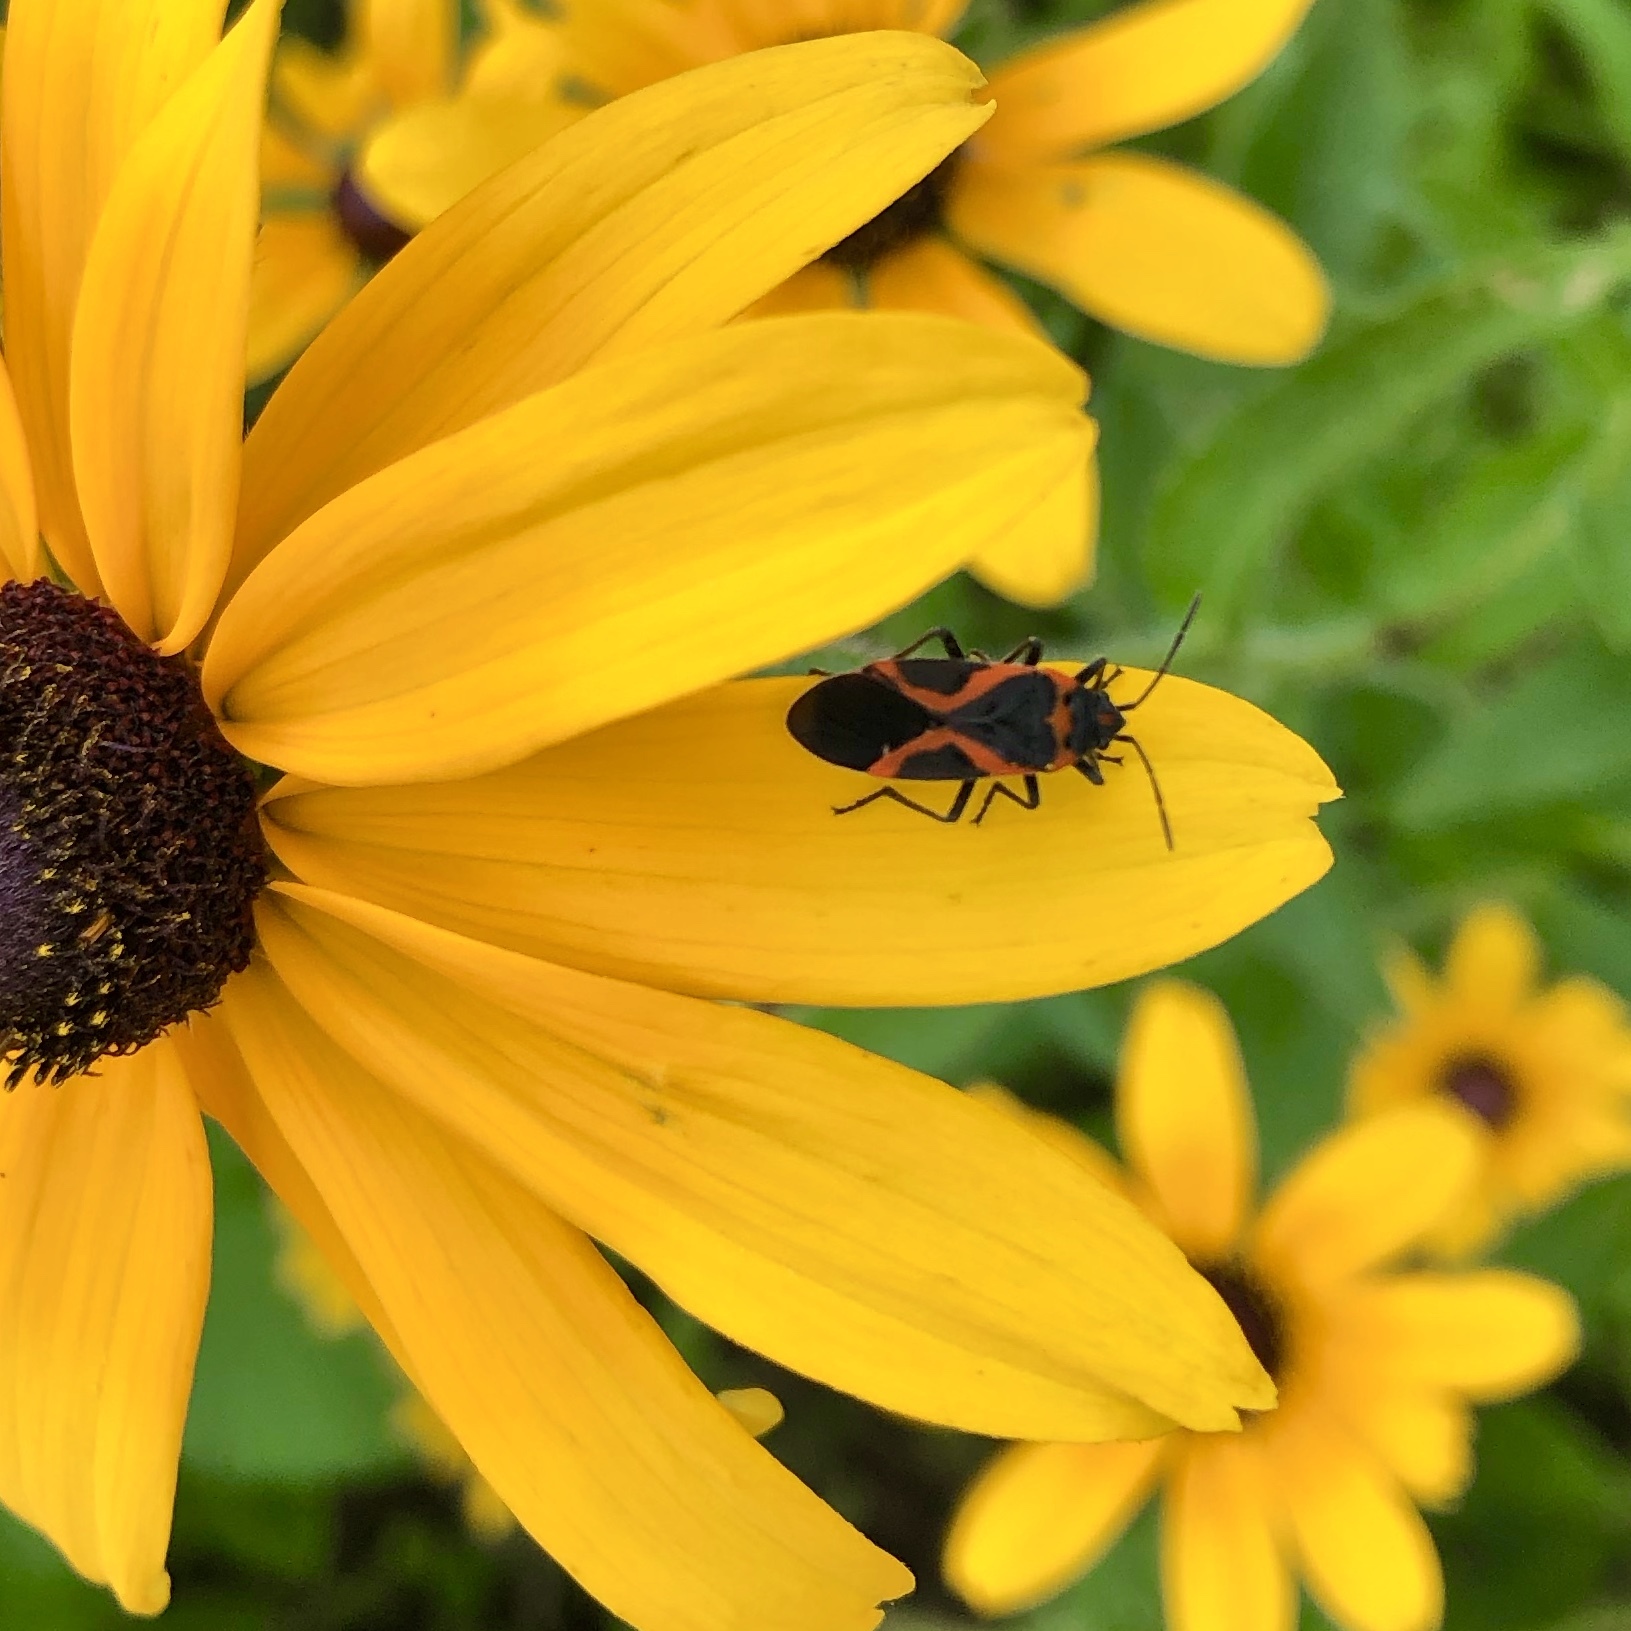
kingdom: Animalia
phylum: Arthropoda
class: Insecta
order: Hemiptera
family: Lygaeidae
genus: Lygaeus
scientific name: Lygaeus kalmii
